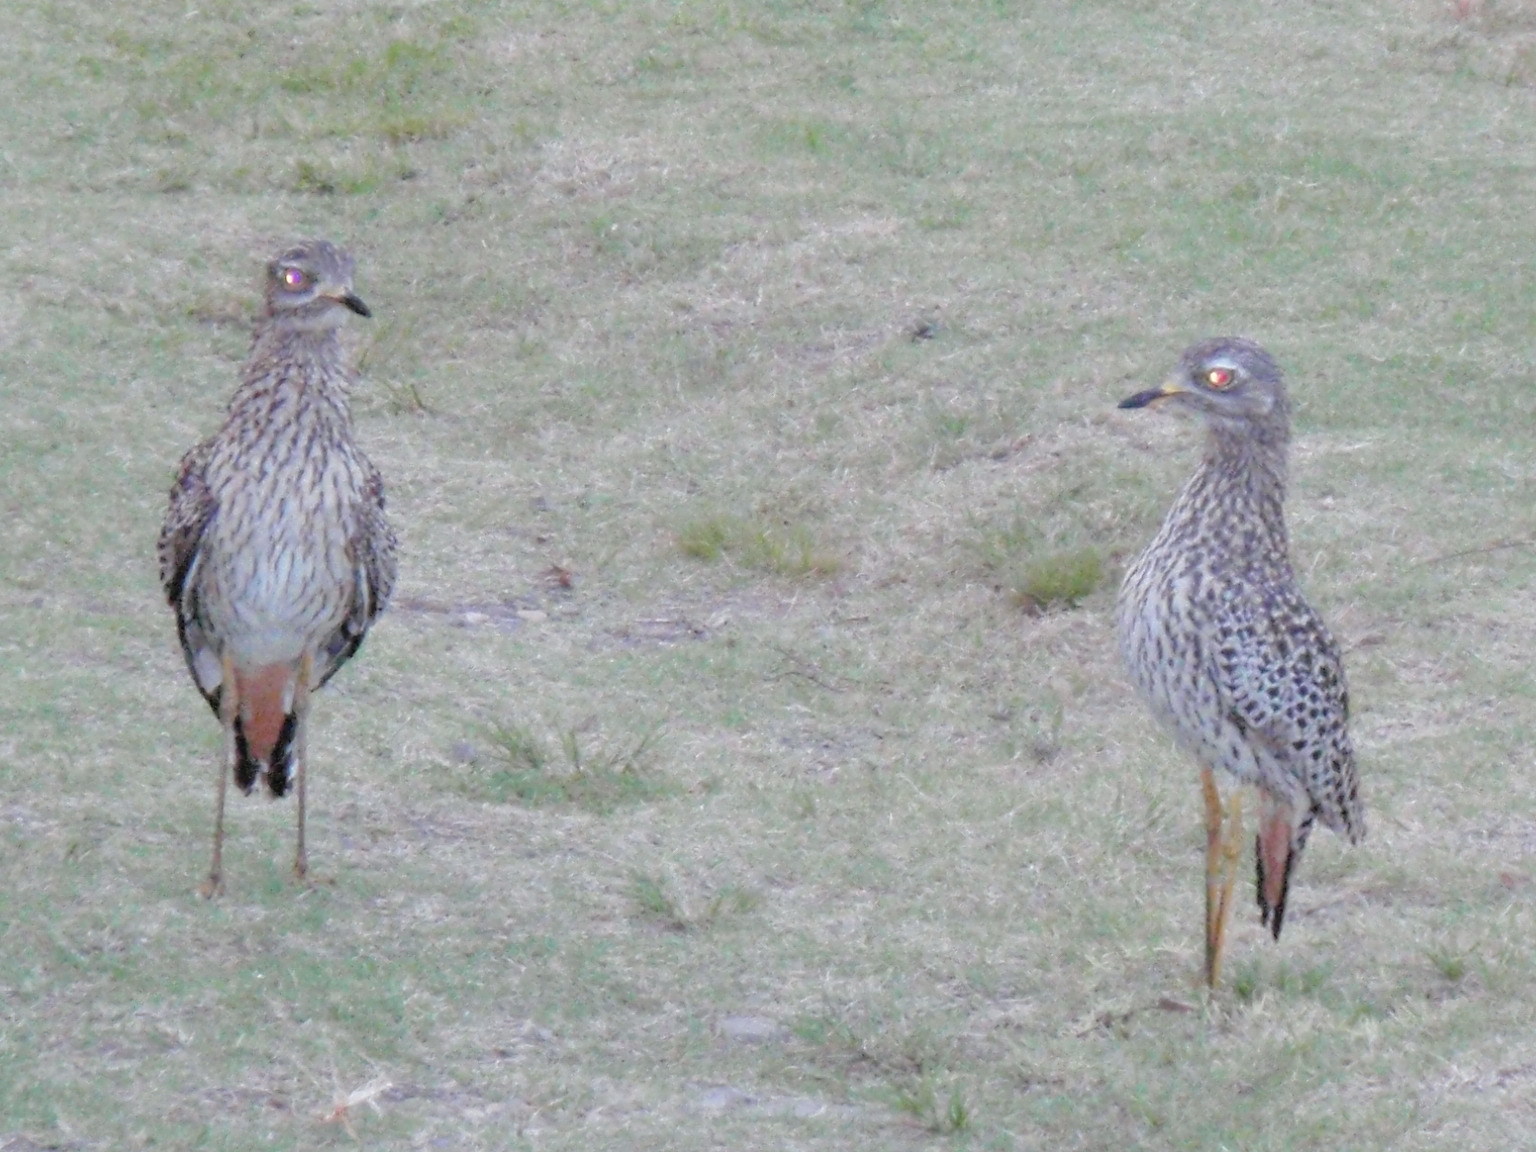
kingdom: Animalia
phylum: Chordata
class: Aves
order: Charadriiformes
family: Burhinidae
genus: Burhinus
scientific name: Burhinus capensis
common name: Spotted thick-knee
